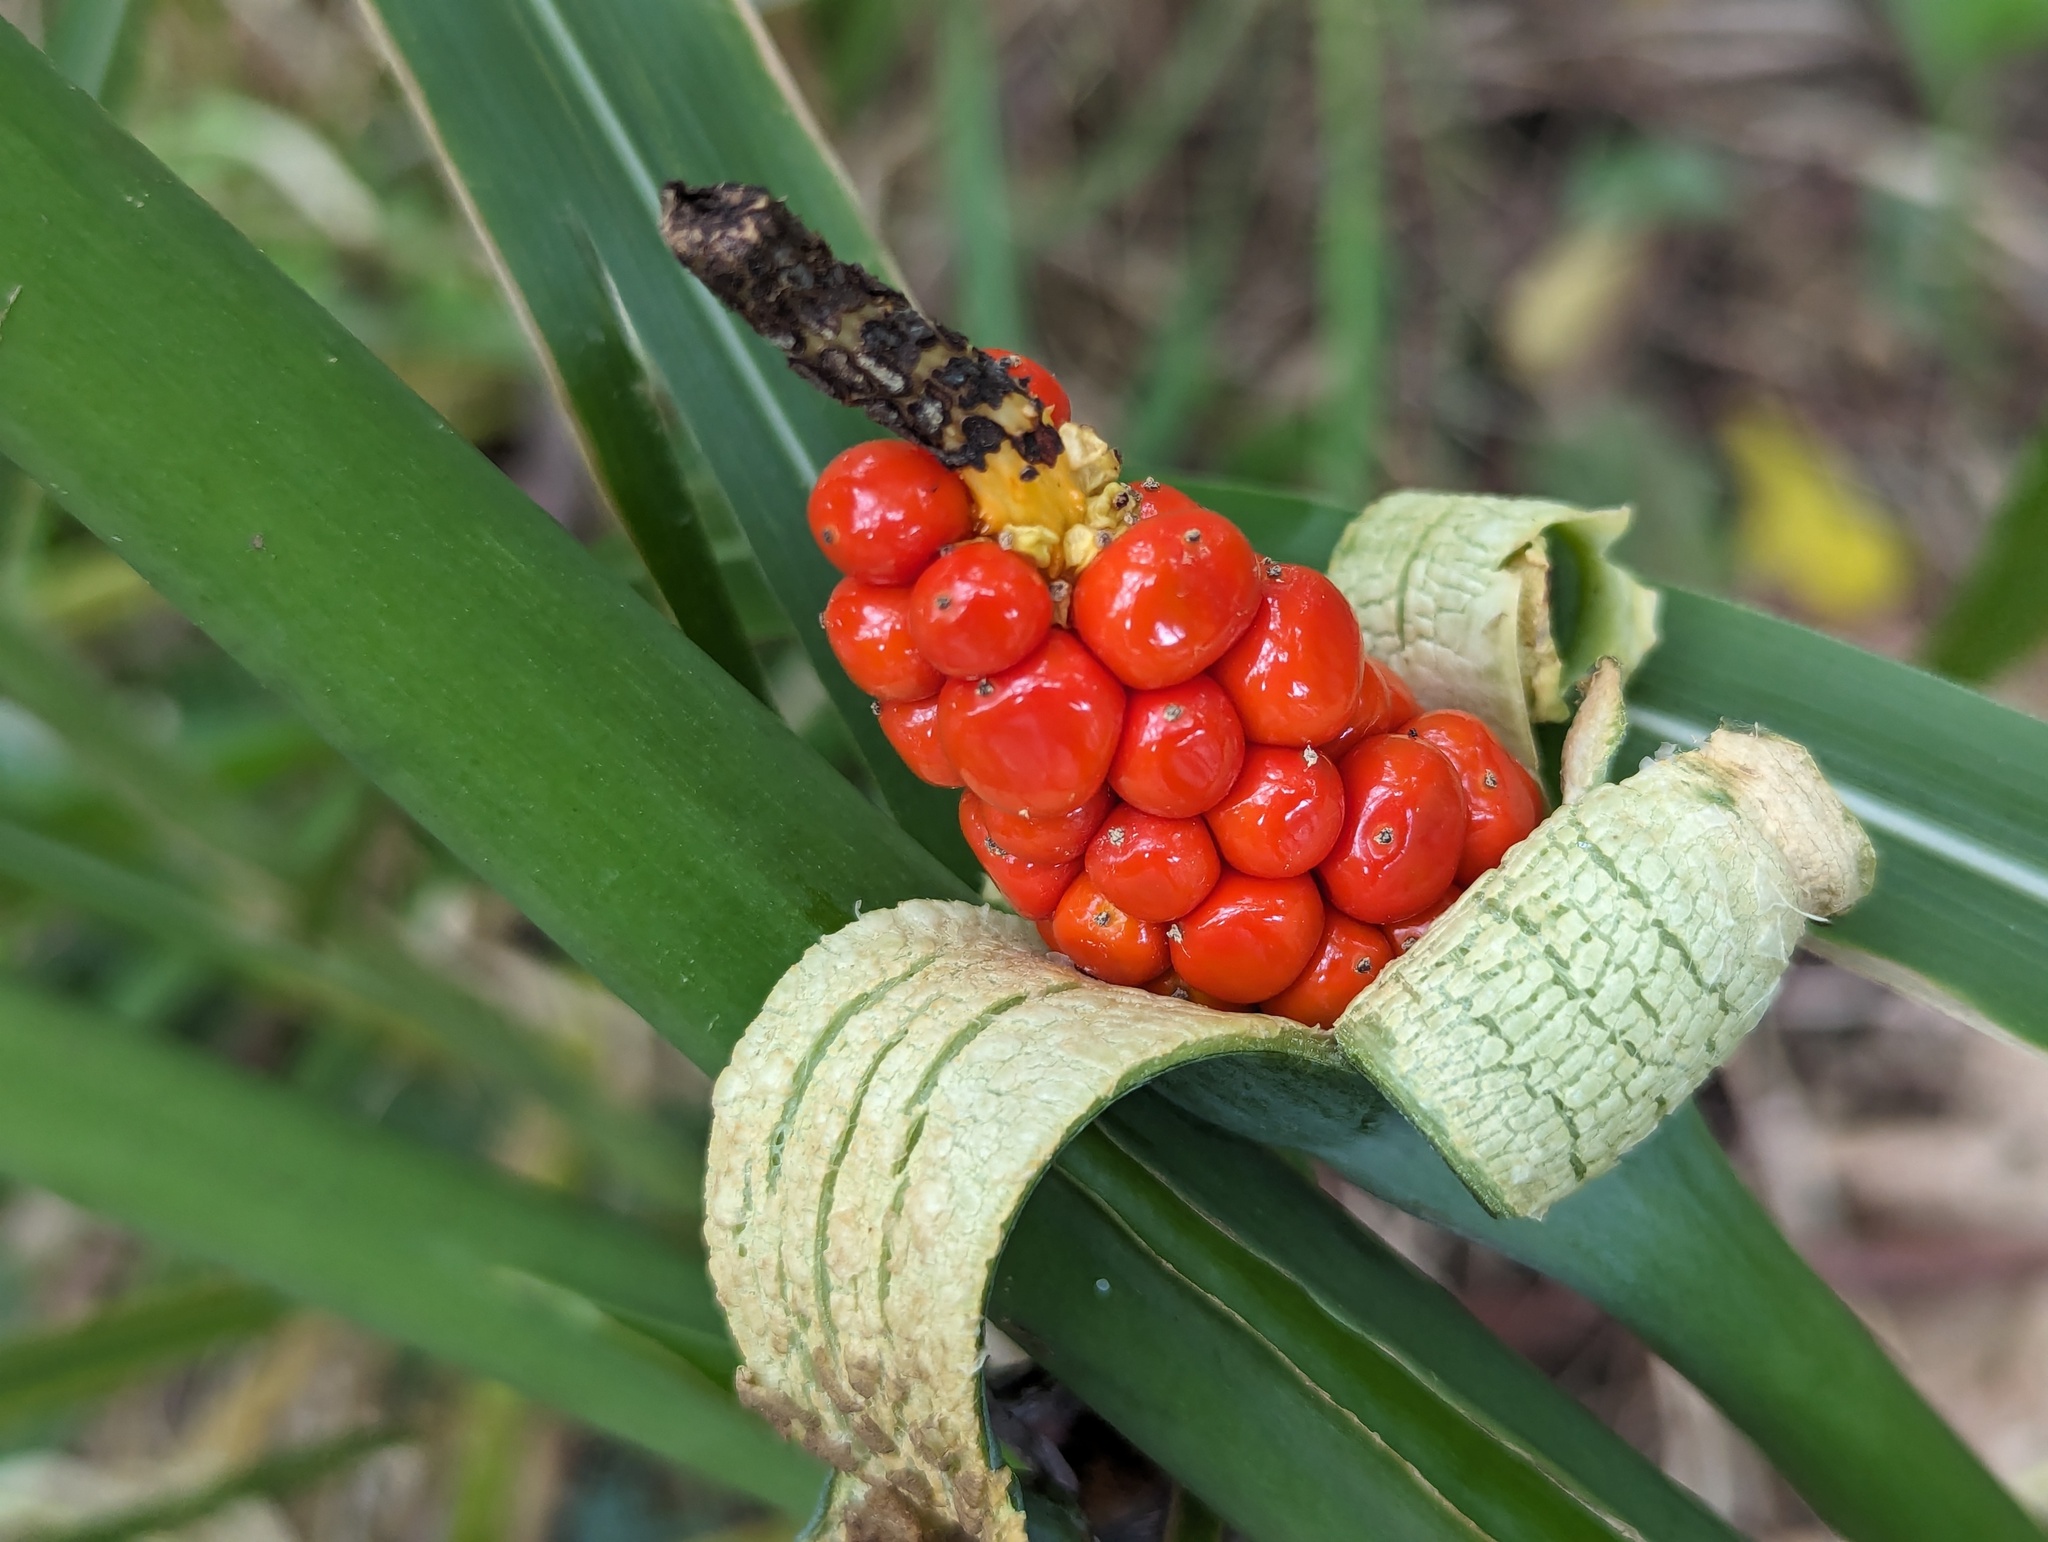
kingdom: Plantae
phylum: Tracheophyta
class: Liliopsida
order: Alismatales
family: Araceae
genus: Alocasia
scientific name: Alocasia odora
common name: Asian taro
